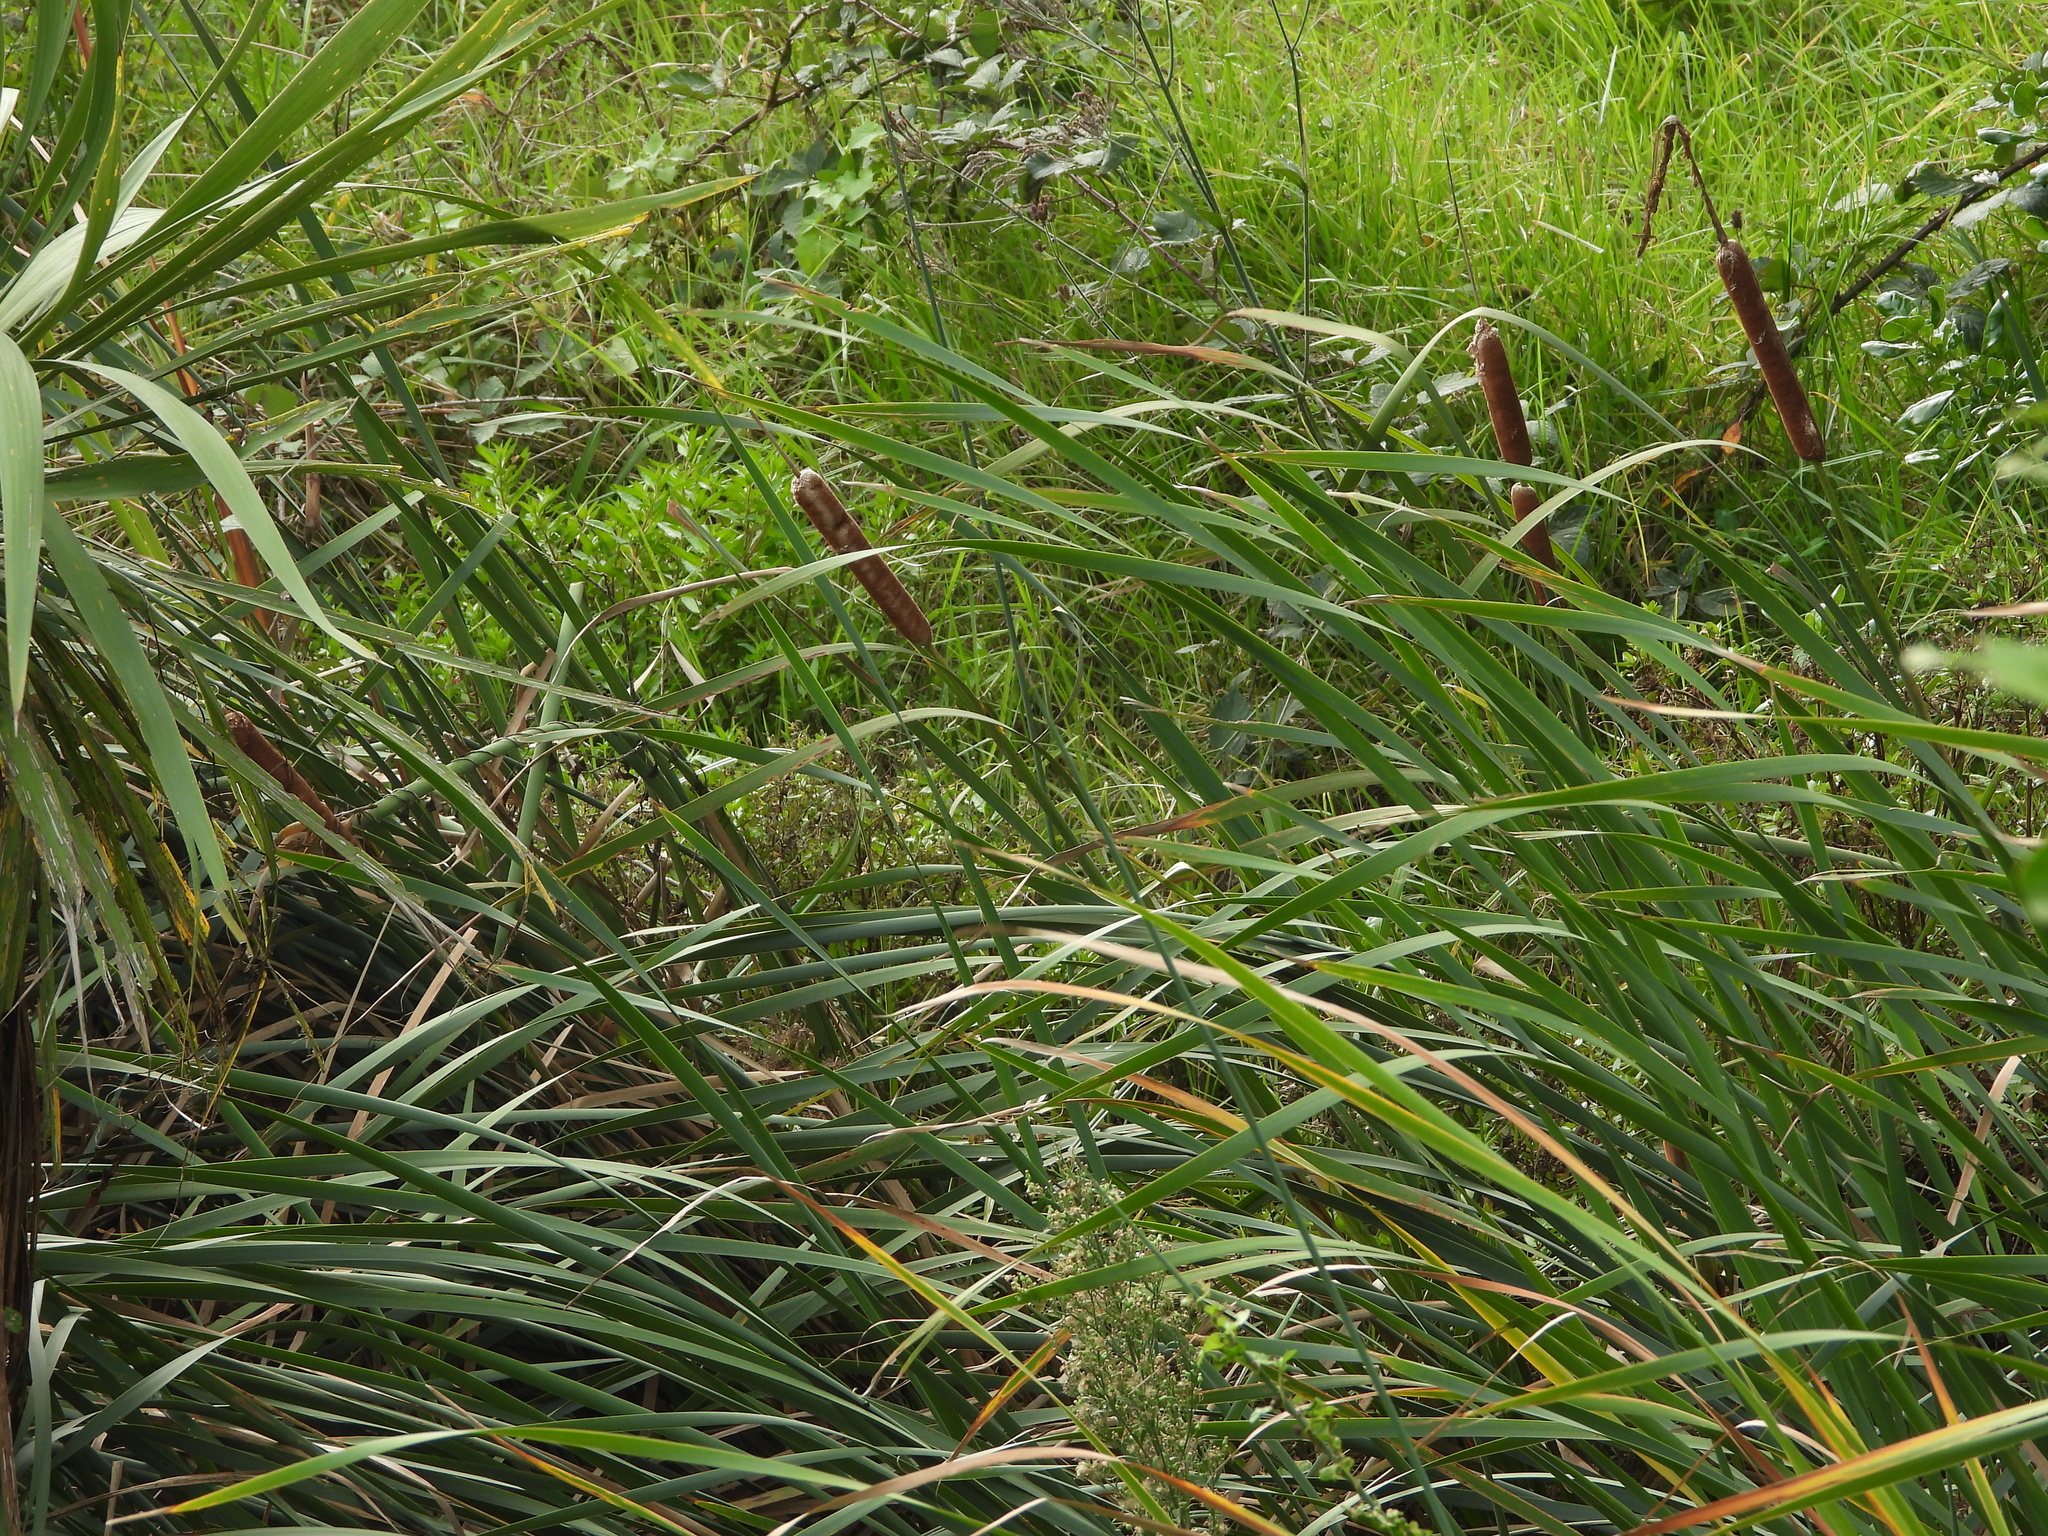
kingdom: Plantae
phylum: Tracheophyta
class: Liliopsida
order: Poales
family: Typhaceae
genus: Typha
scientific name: Typha orientalis
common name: Bullrush
